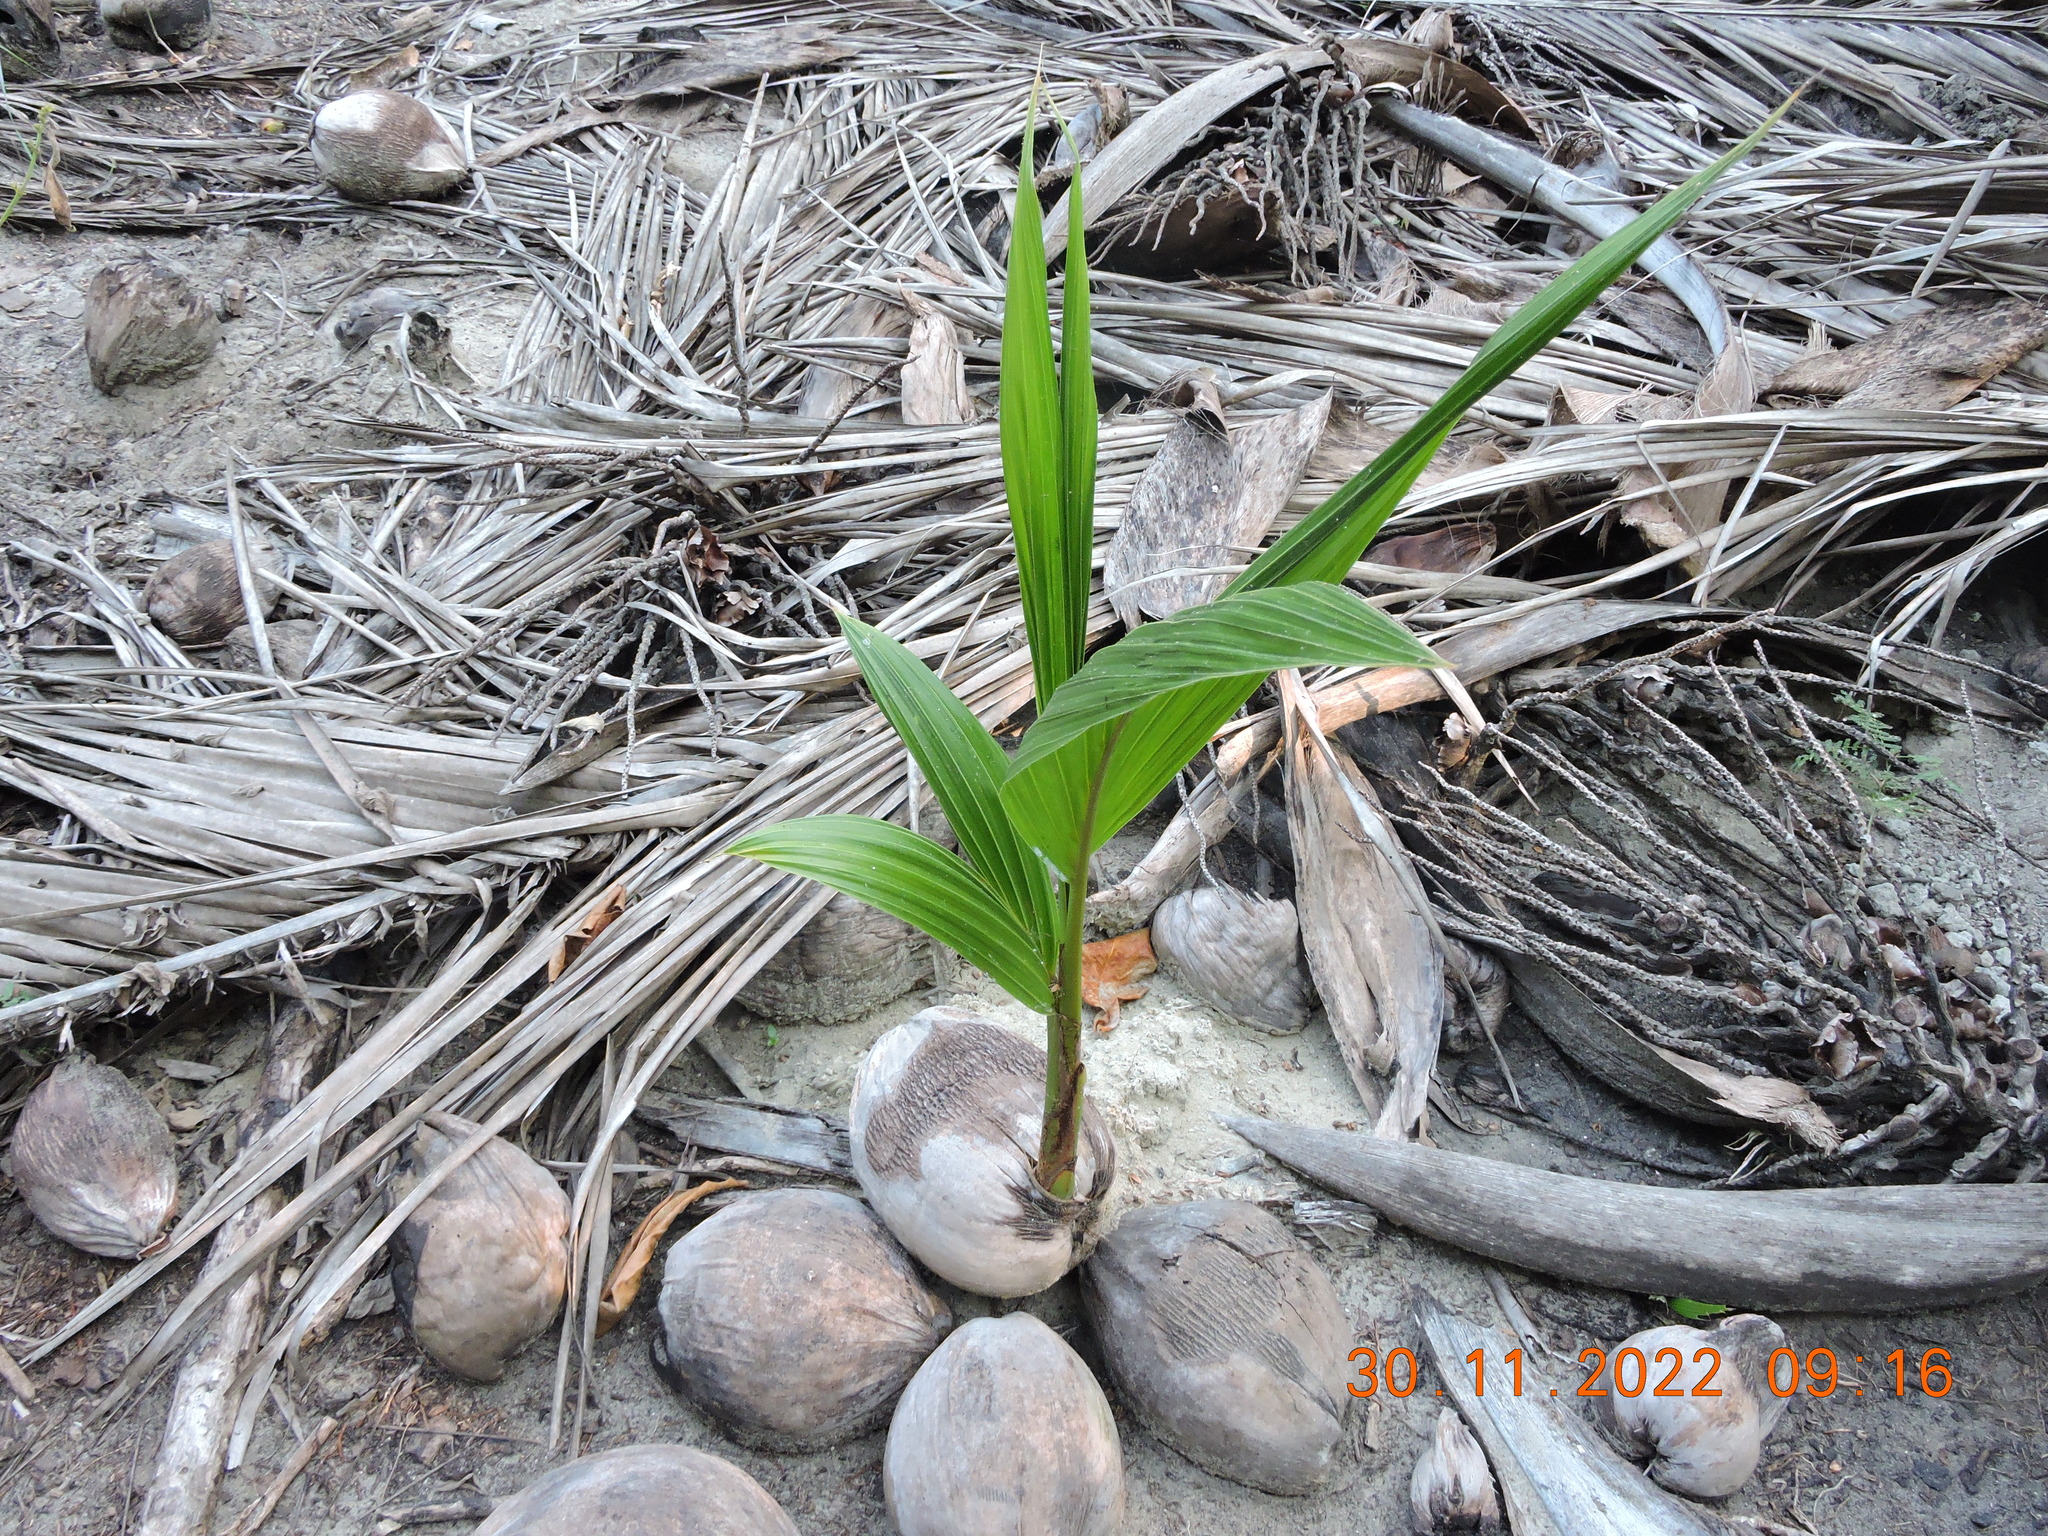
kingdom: Plantae
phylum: Tracheophyta
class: Liliopsida
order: Arecales
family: Arecaceae
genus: Cocos
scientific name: Cocos nucifera
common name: Coconut palm
